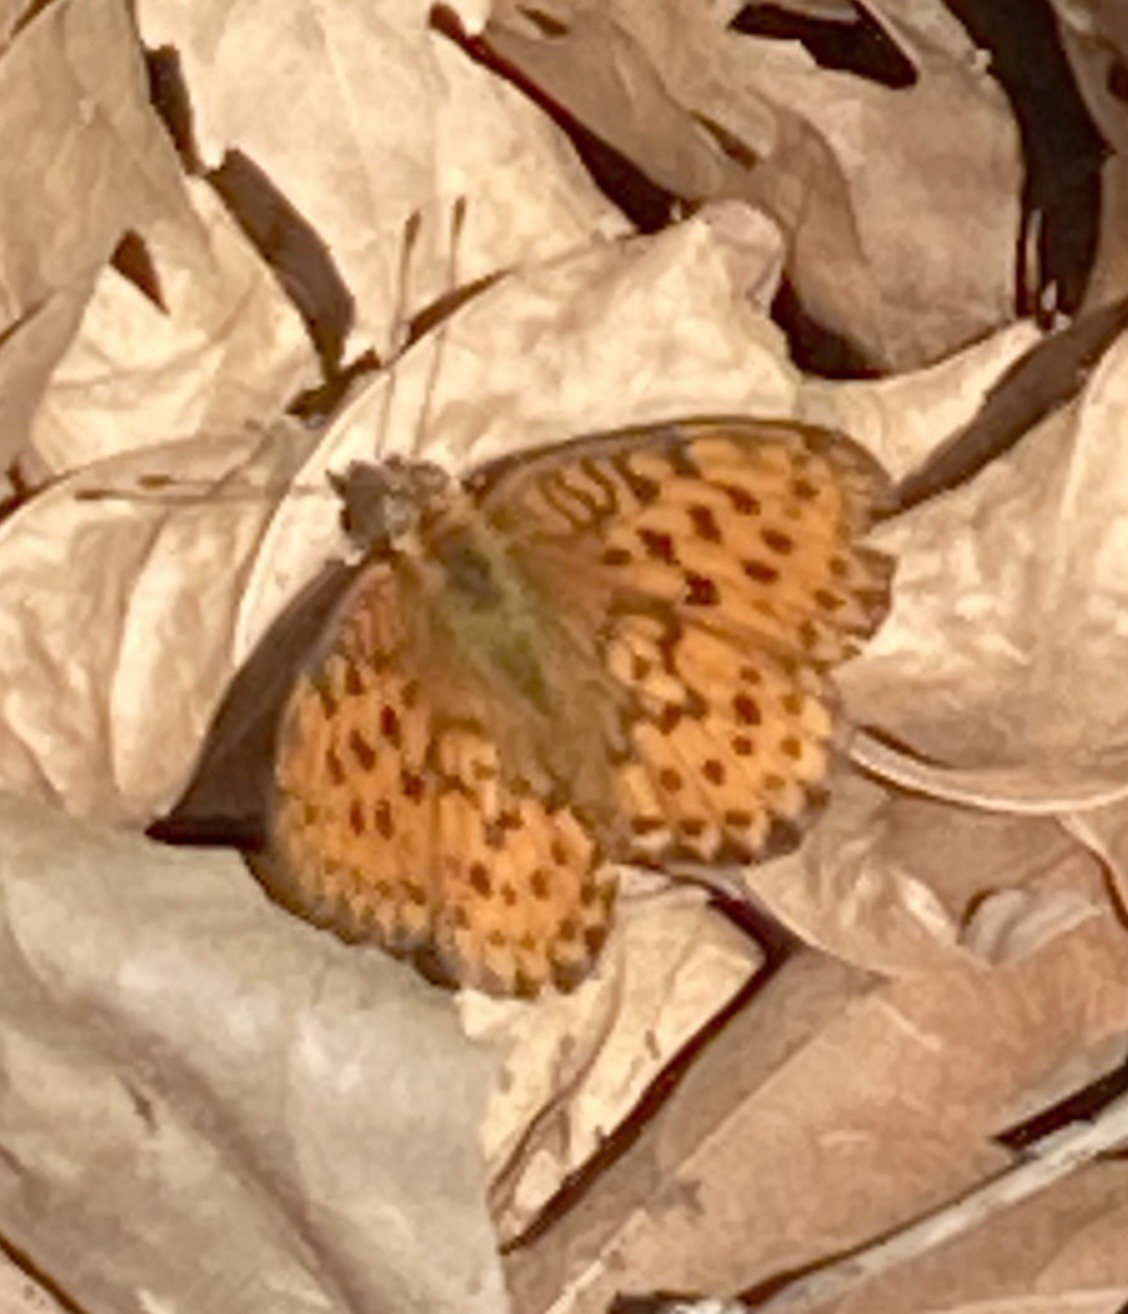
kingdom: Animalia
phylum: Arthropoda
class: Insecta
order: Lepidoptera
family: Nymphalidae
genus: Brenthis
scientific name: Brenthis daphne
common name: Marbled fritillary
